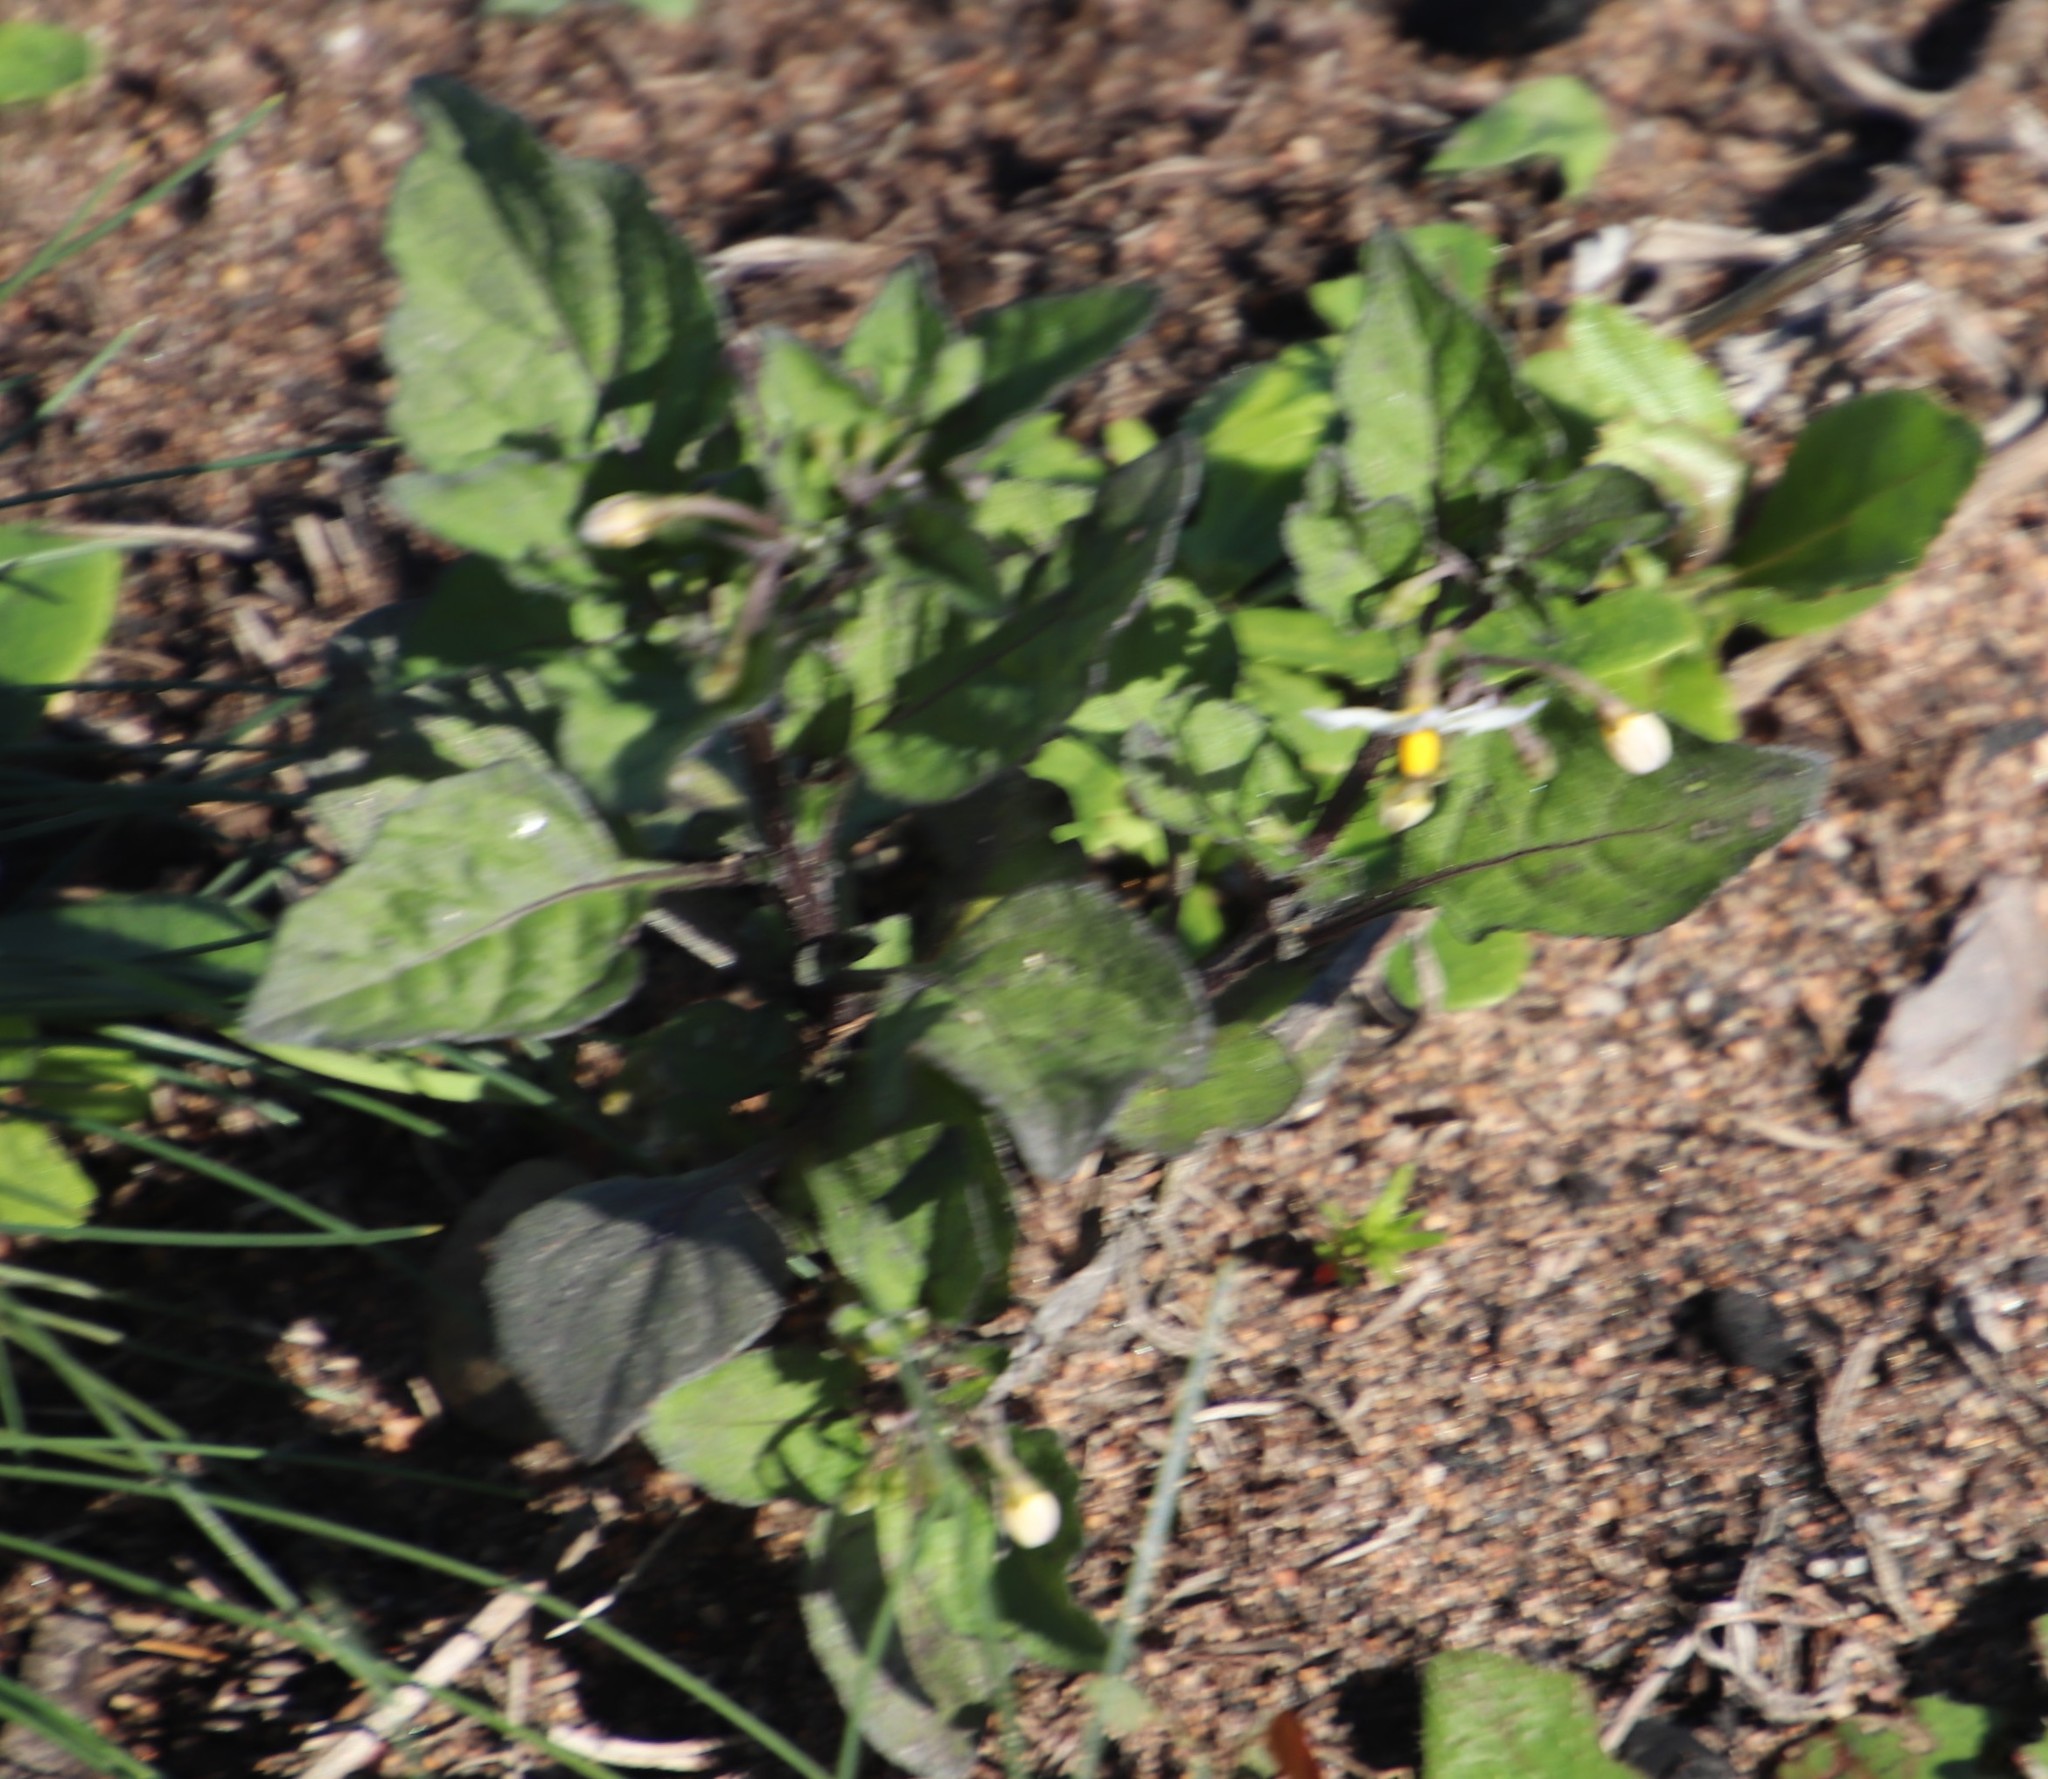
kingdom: Plantae
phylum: Tracheophyta
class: Magnoliopsida
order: Solanales
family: Solanaceae
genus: Solanum
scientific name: Solanum nigrum
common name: Black nightshade
